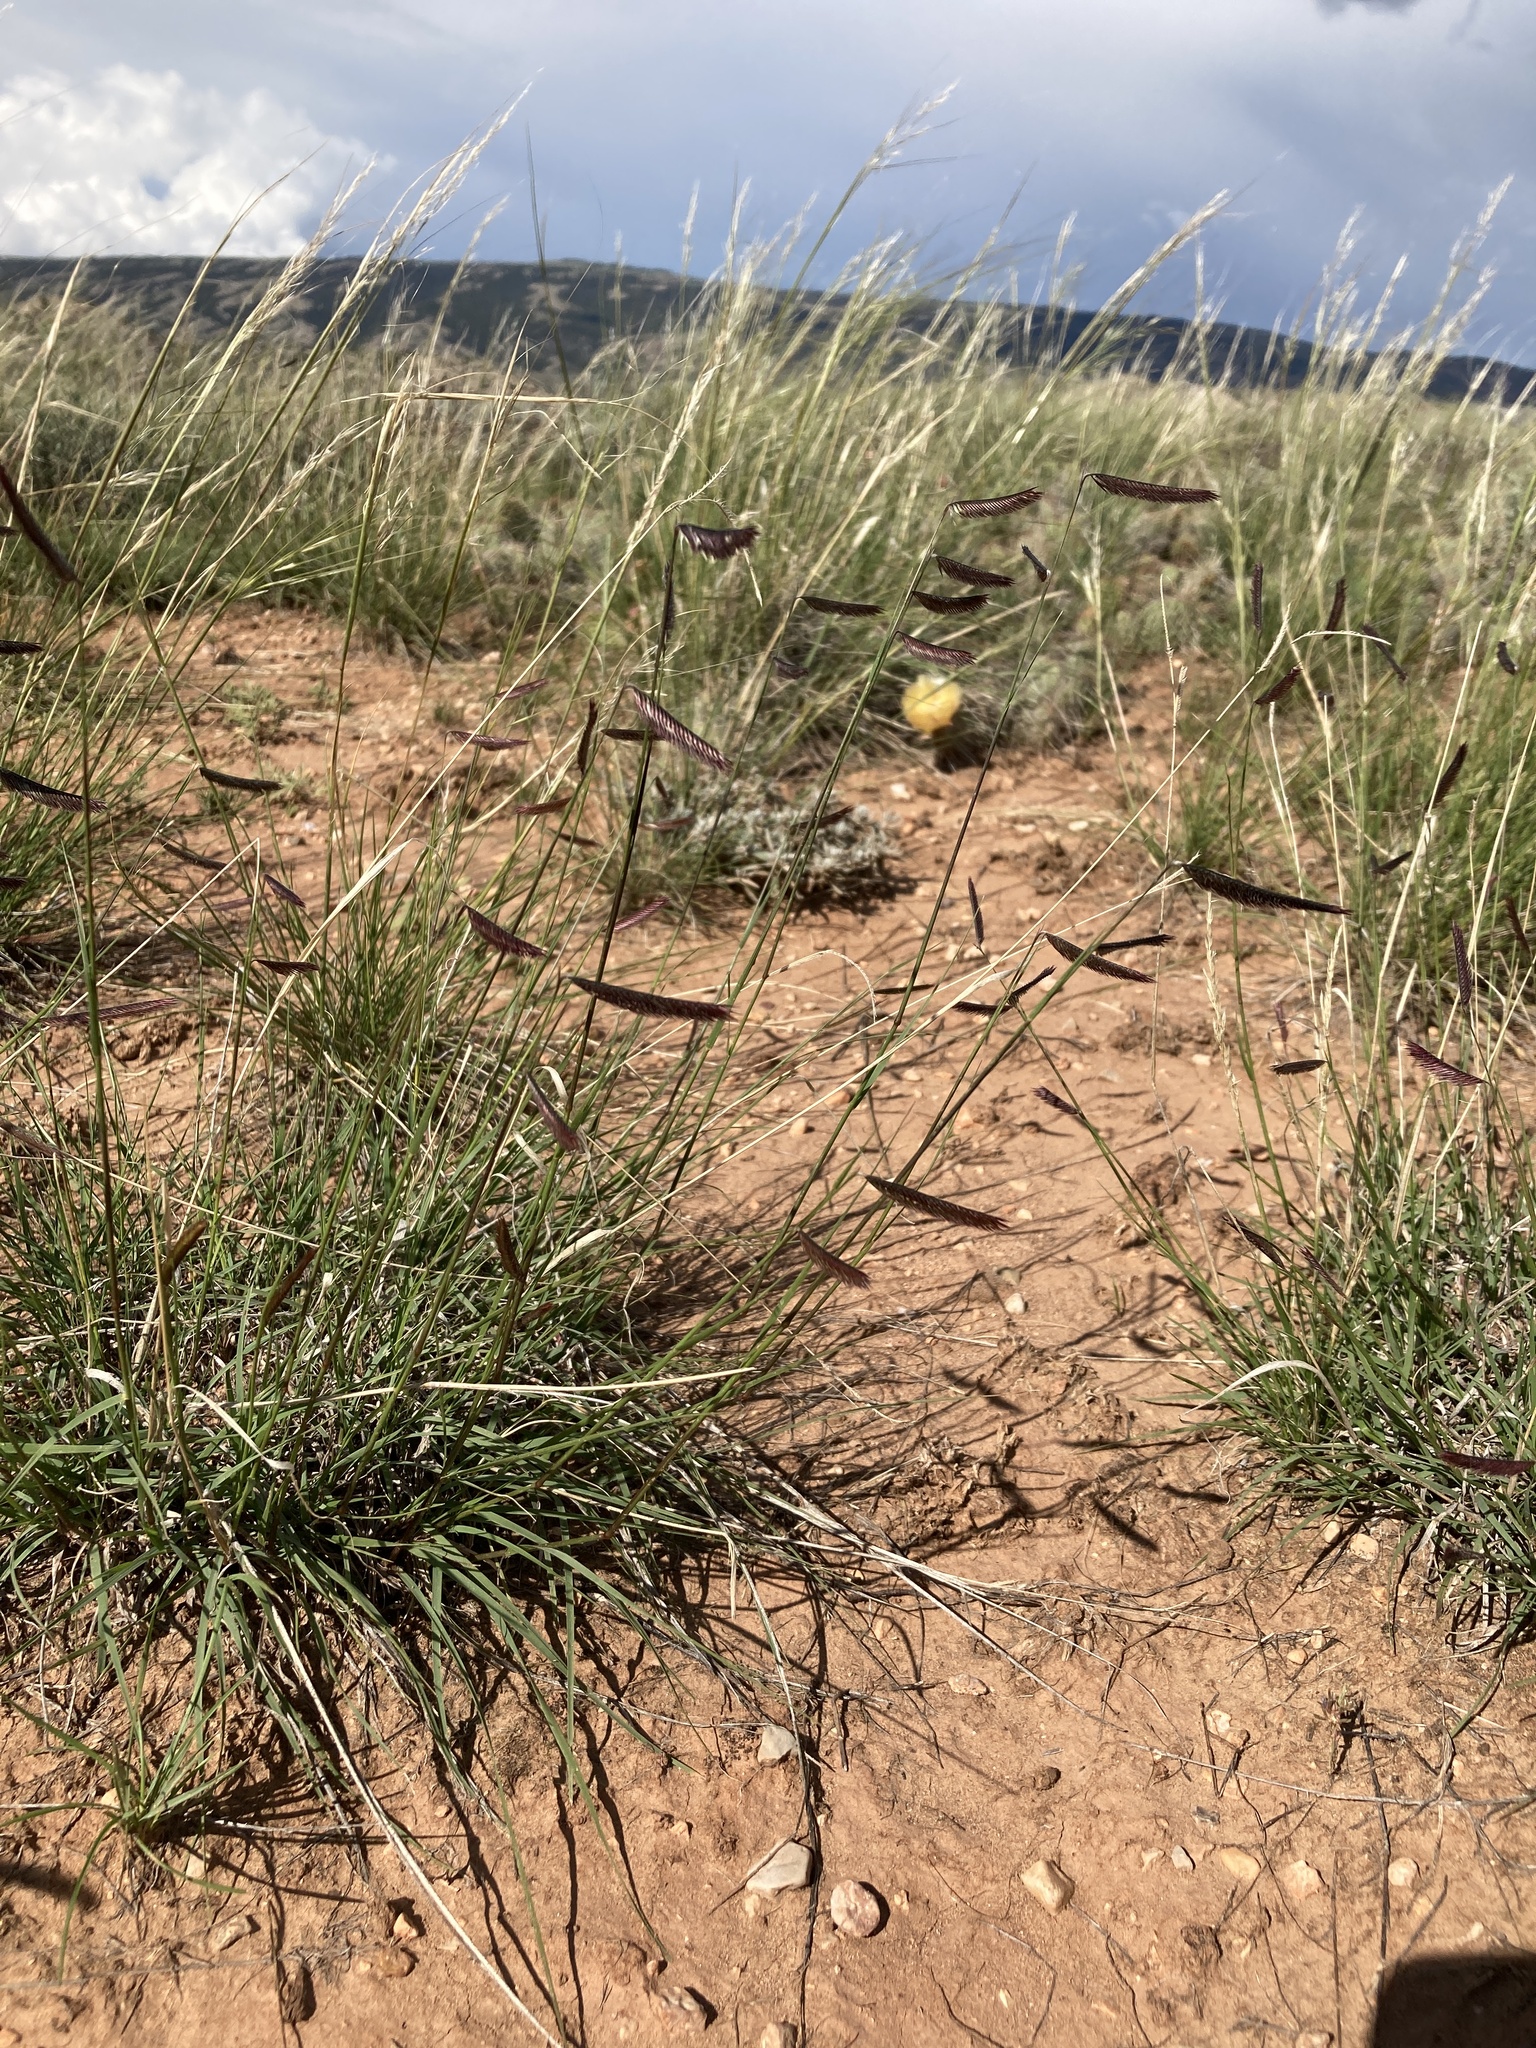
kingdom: Plantae
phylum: Tracheophyta
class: Liliopsida
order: Poales
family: Poaceae
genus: Bouteloua
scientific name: Bouteloua gracilis
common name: Blue grama
